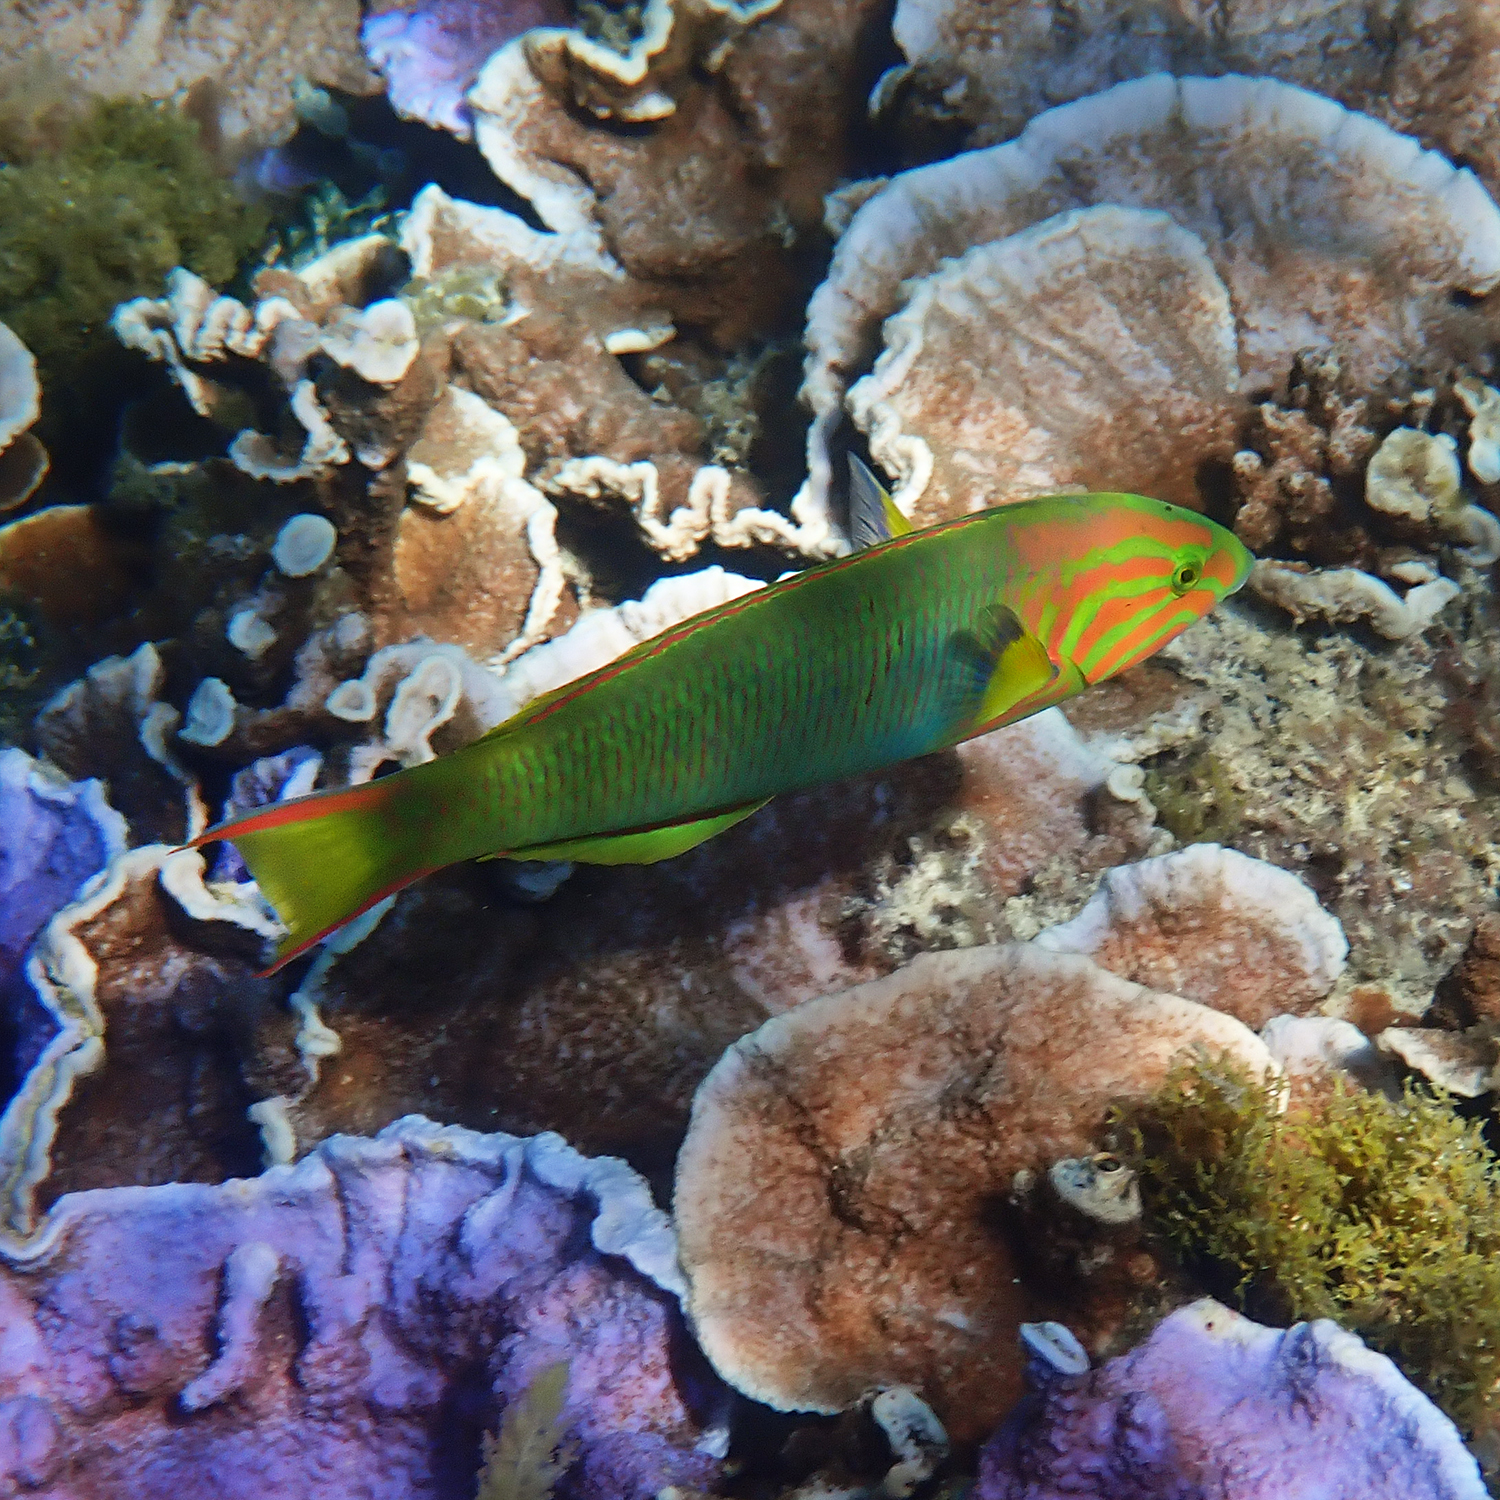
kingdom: Animalia
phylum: Chordata
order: Perciformes
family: Labridae
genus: Thalassoma
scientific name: Thalassoma lutescens
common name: Green moon wrasse
